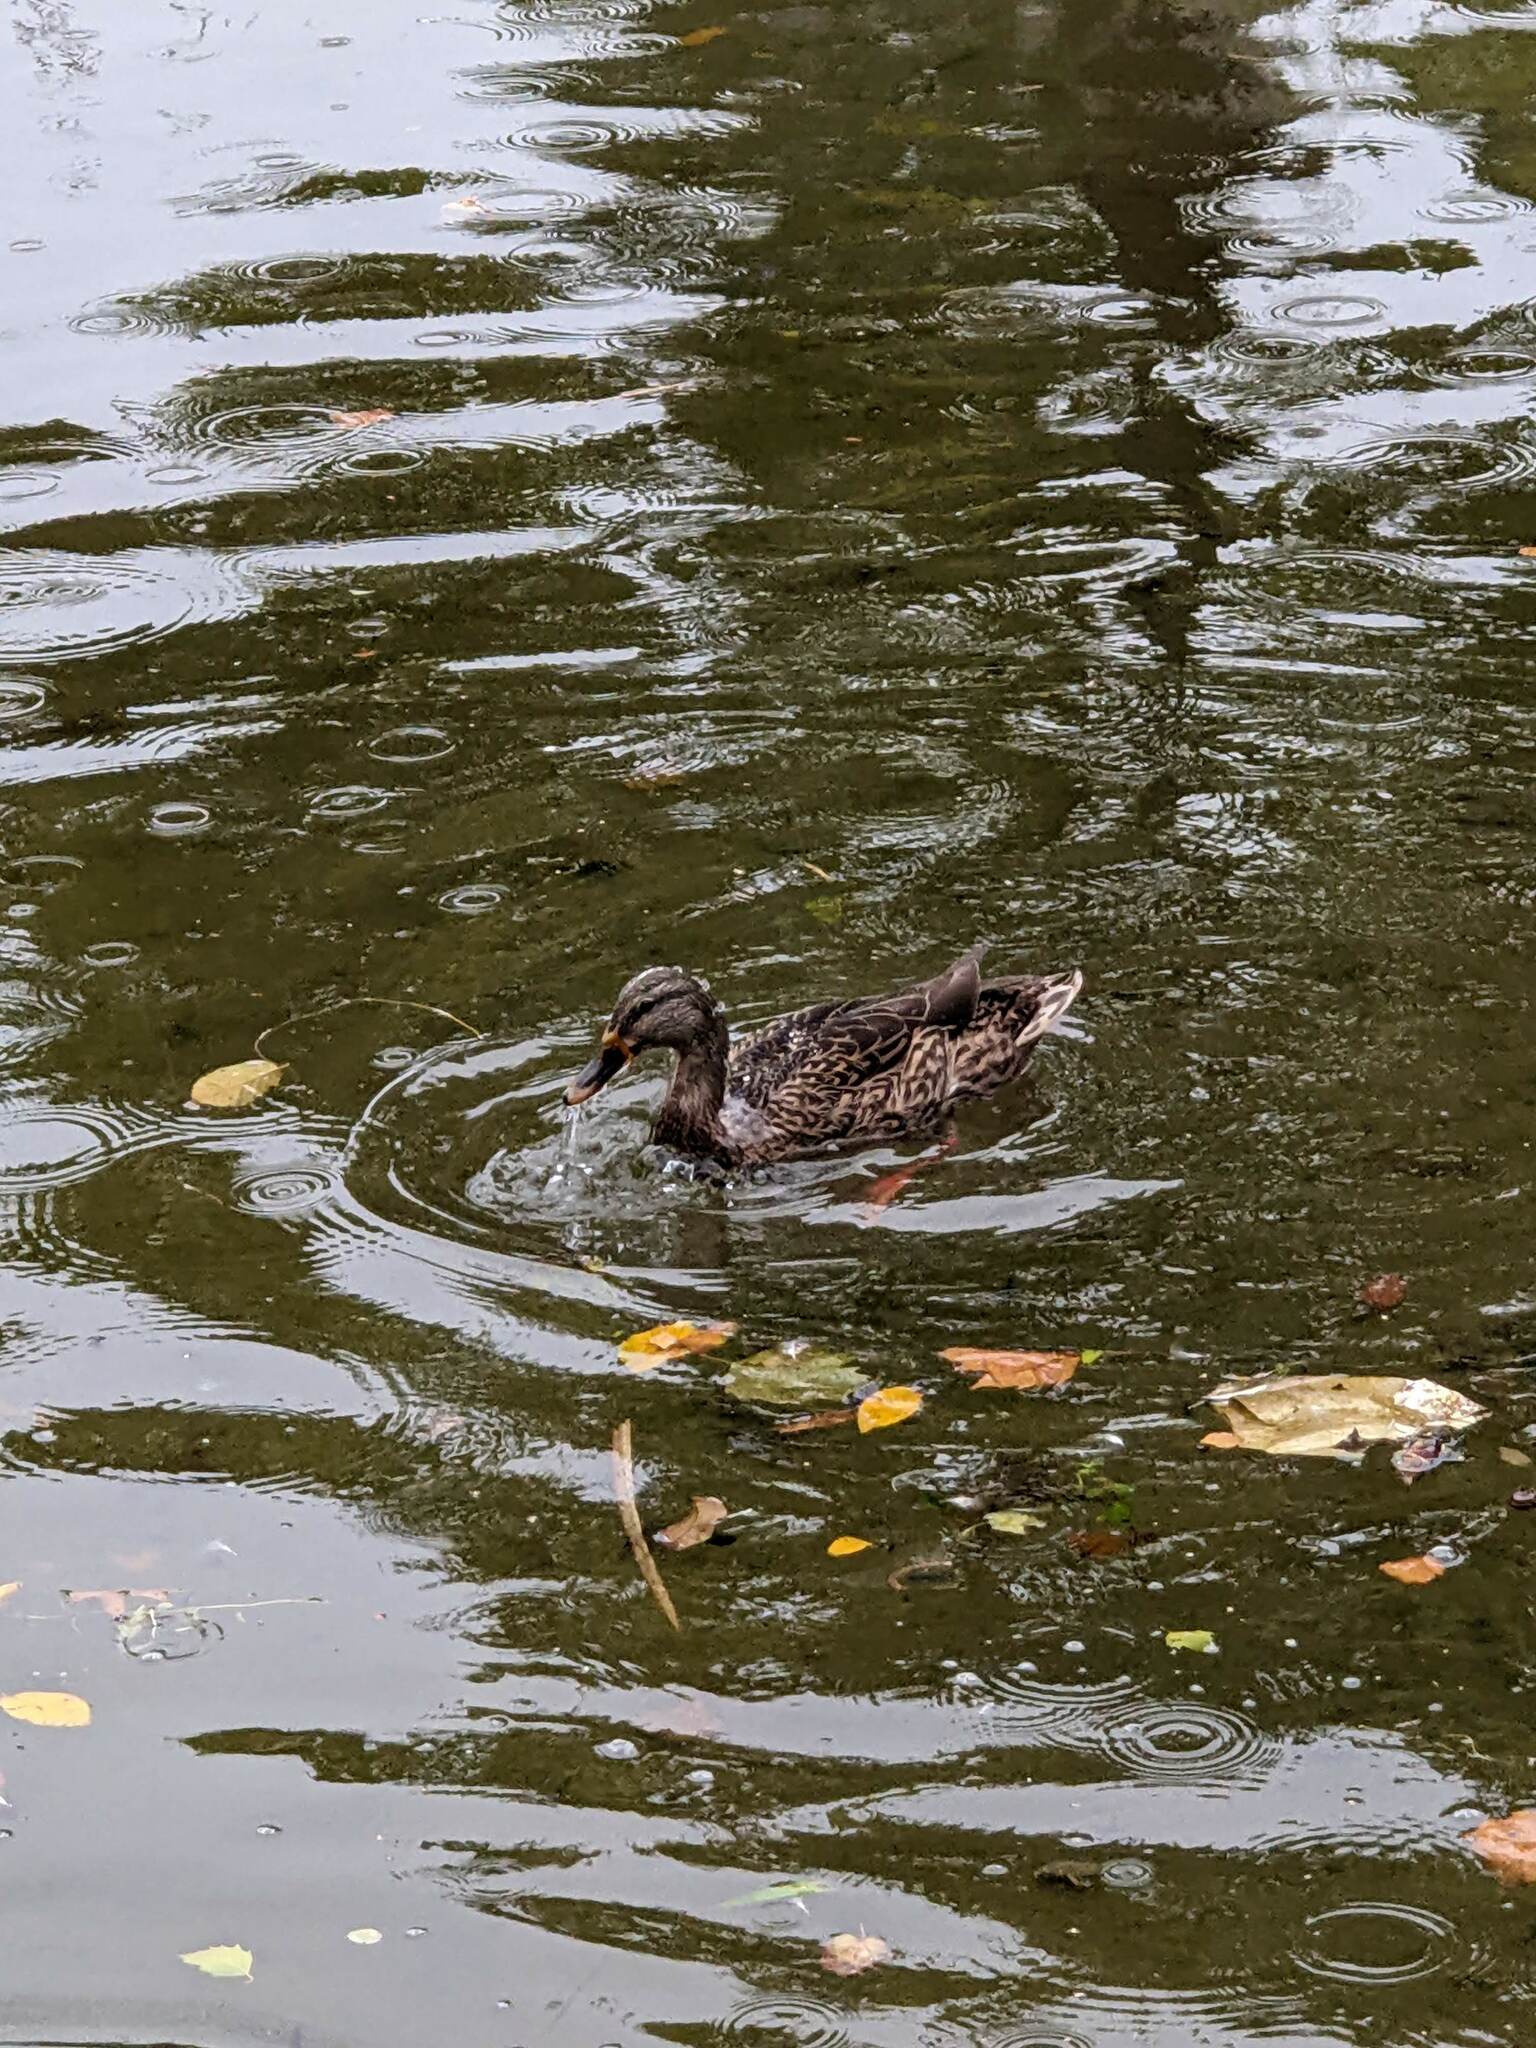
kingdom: Animalia
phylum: Chordata
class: Aves
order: Anseriformes
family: Anatidae
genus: Anas
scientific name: Anas platyrhynchos
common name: Mallard
